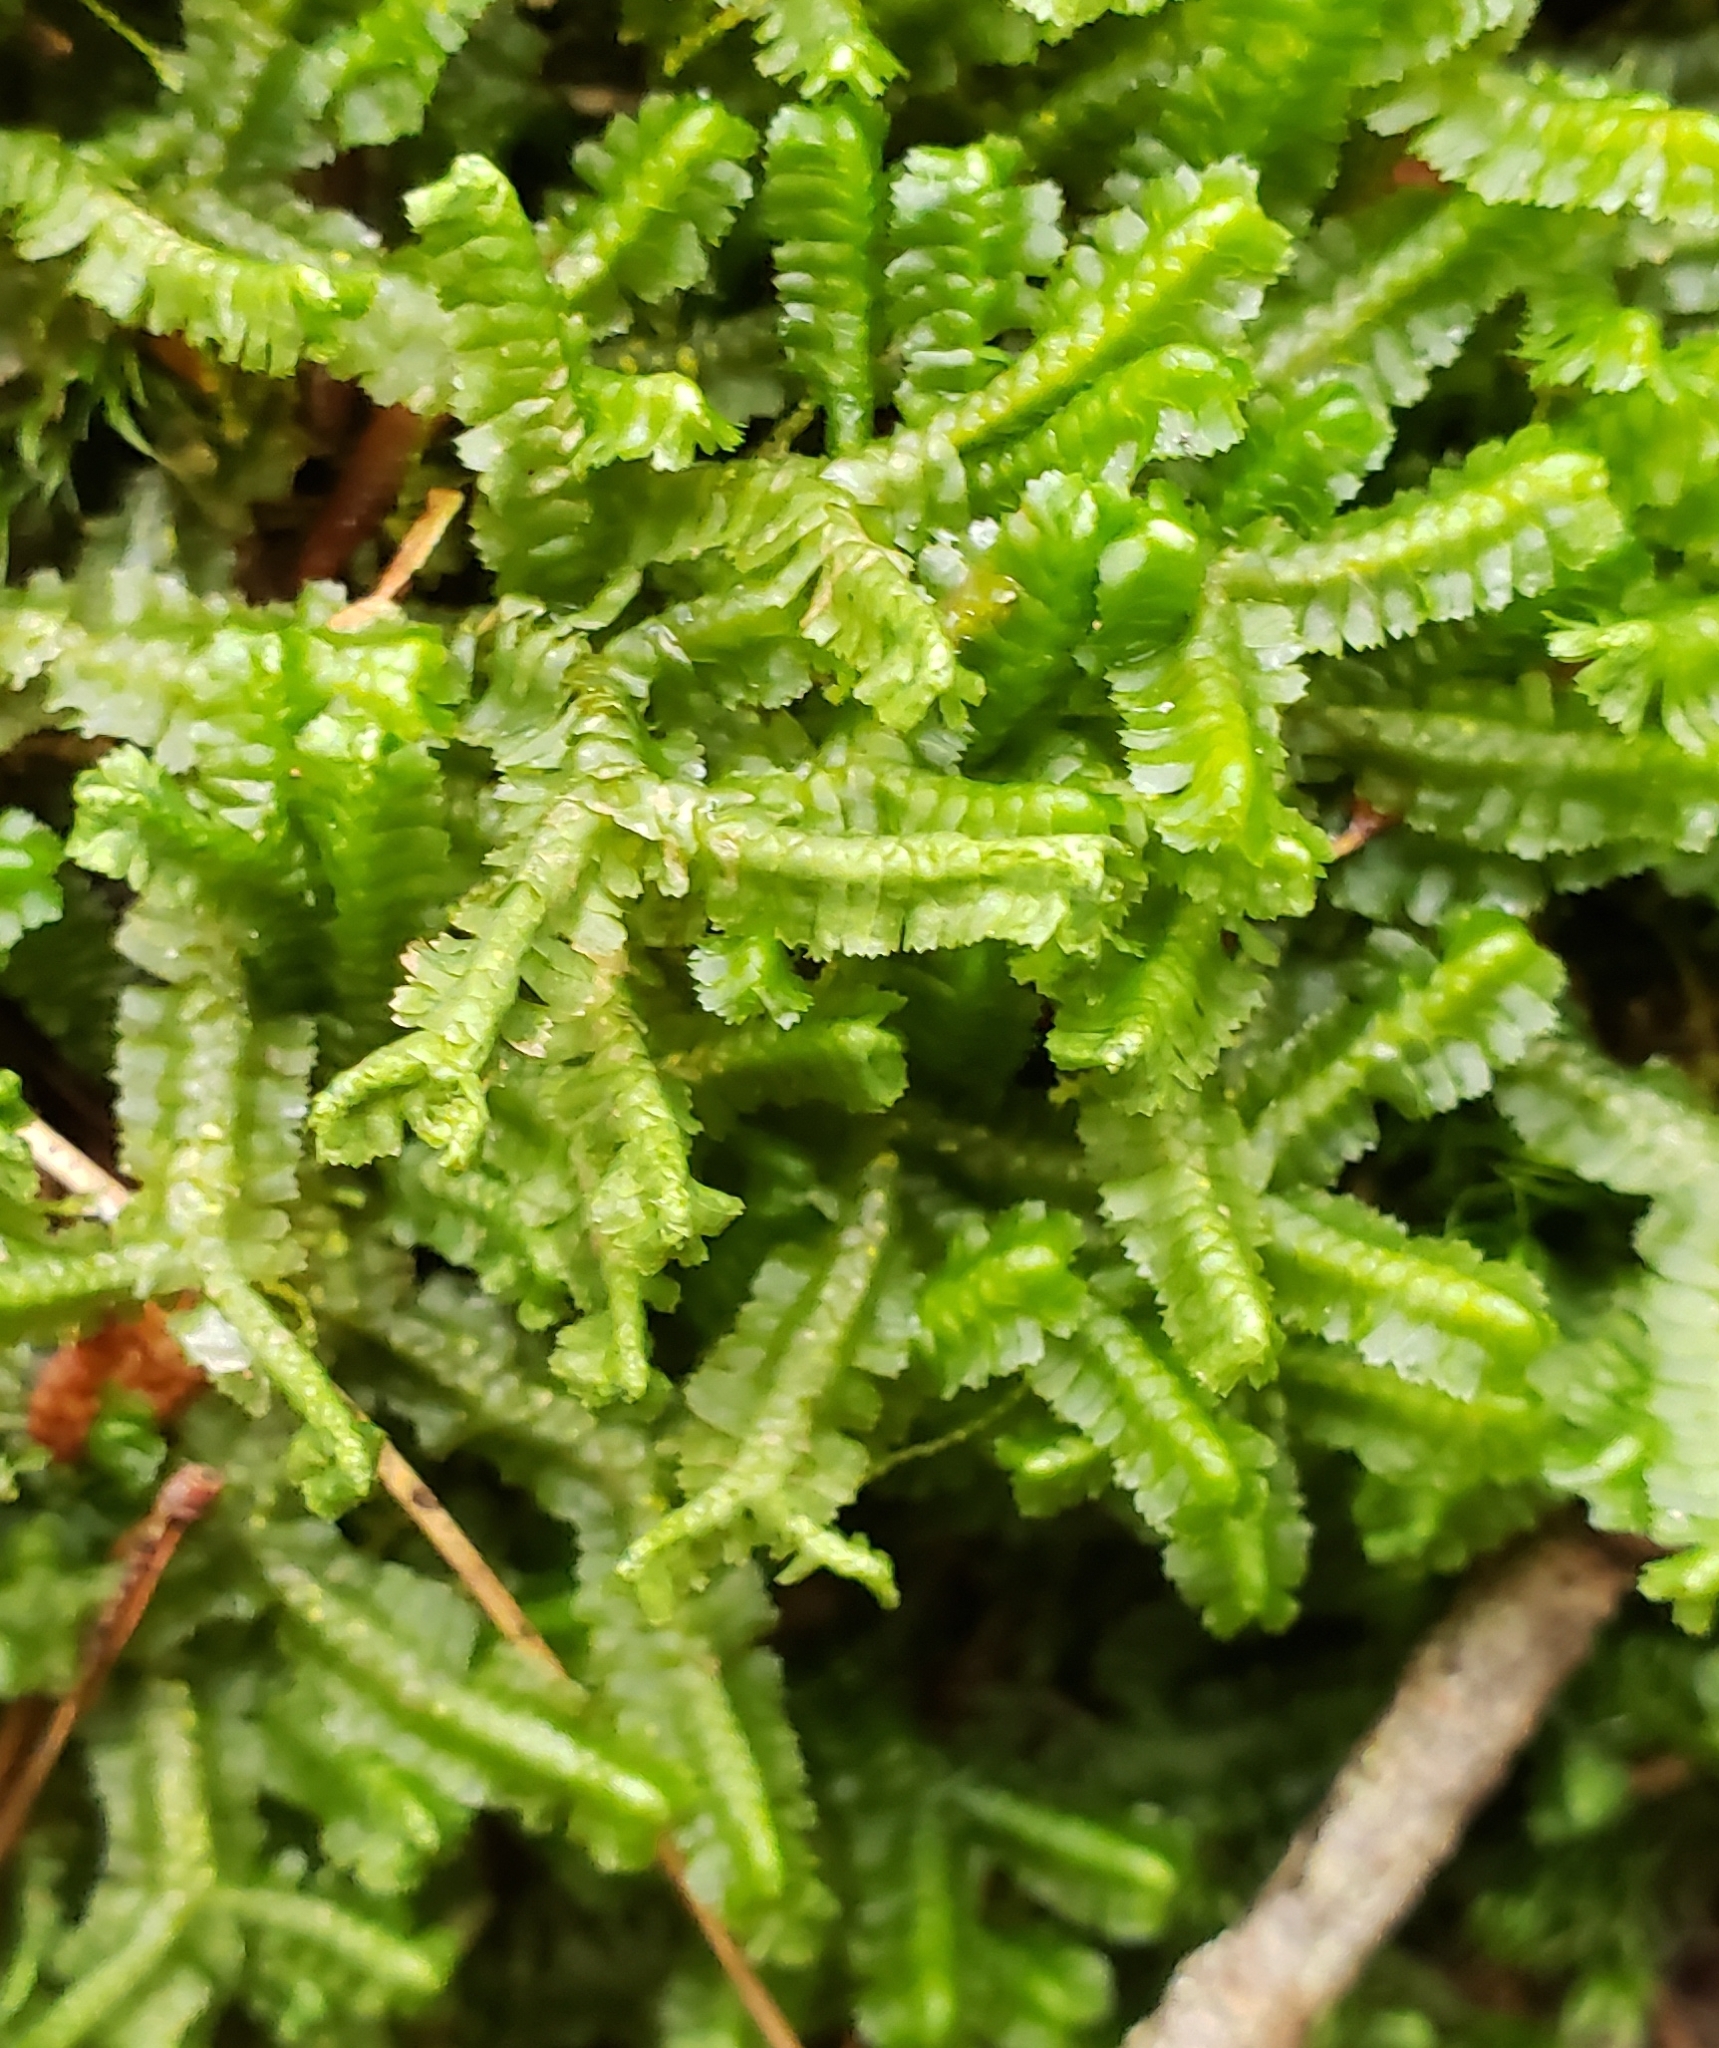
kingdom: Plantae
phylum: Marchantiophyta
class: Jungermanniopsida
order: Jungermanniales
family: Lepidoziaceae
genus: Bazzania
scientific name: Bazzania trilobata
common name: Three-lobed whipwort
